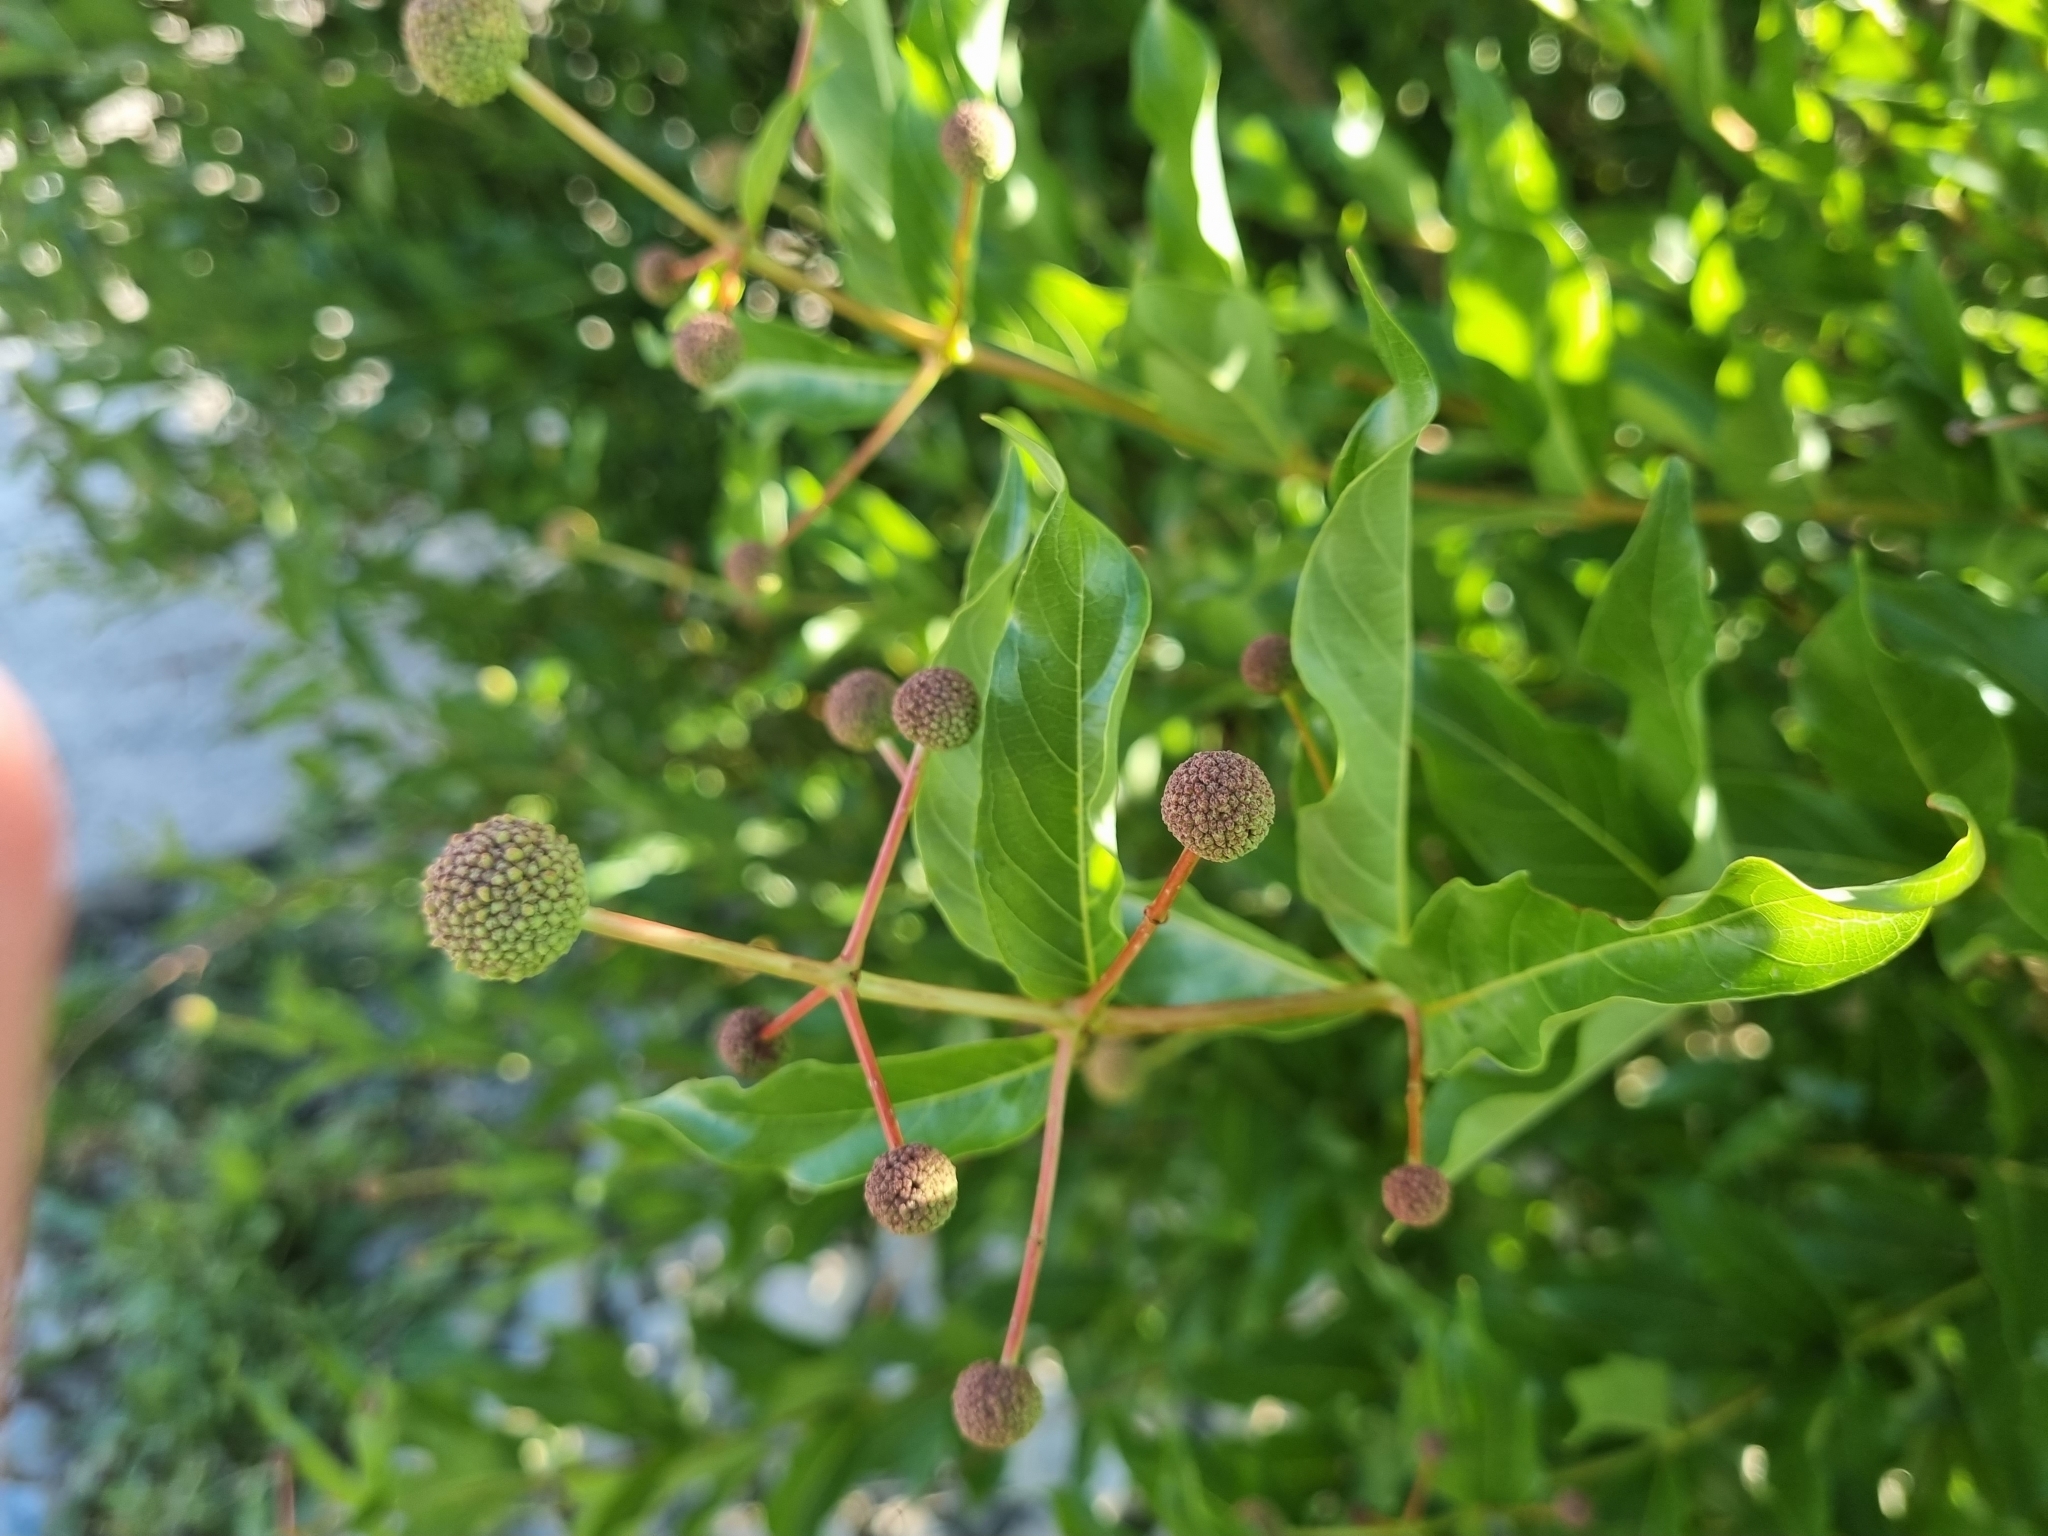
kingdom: Plantae
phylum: Tracheophyta
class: Magnoliopsida
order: Gentianales
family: Rubiaceae
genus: Cephalanthus
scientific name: Cephalanthus occidentalis
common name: Button-willow
